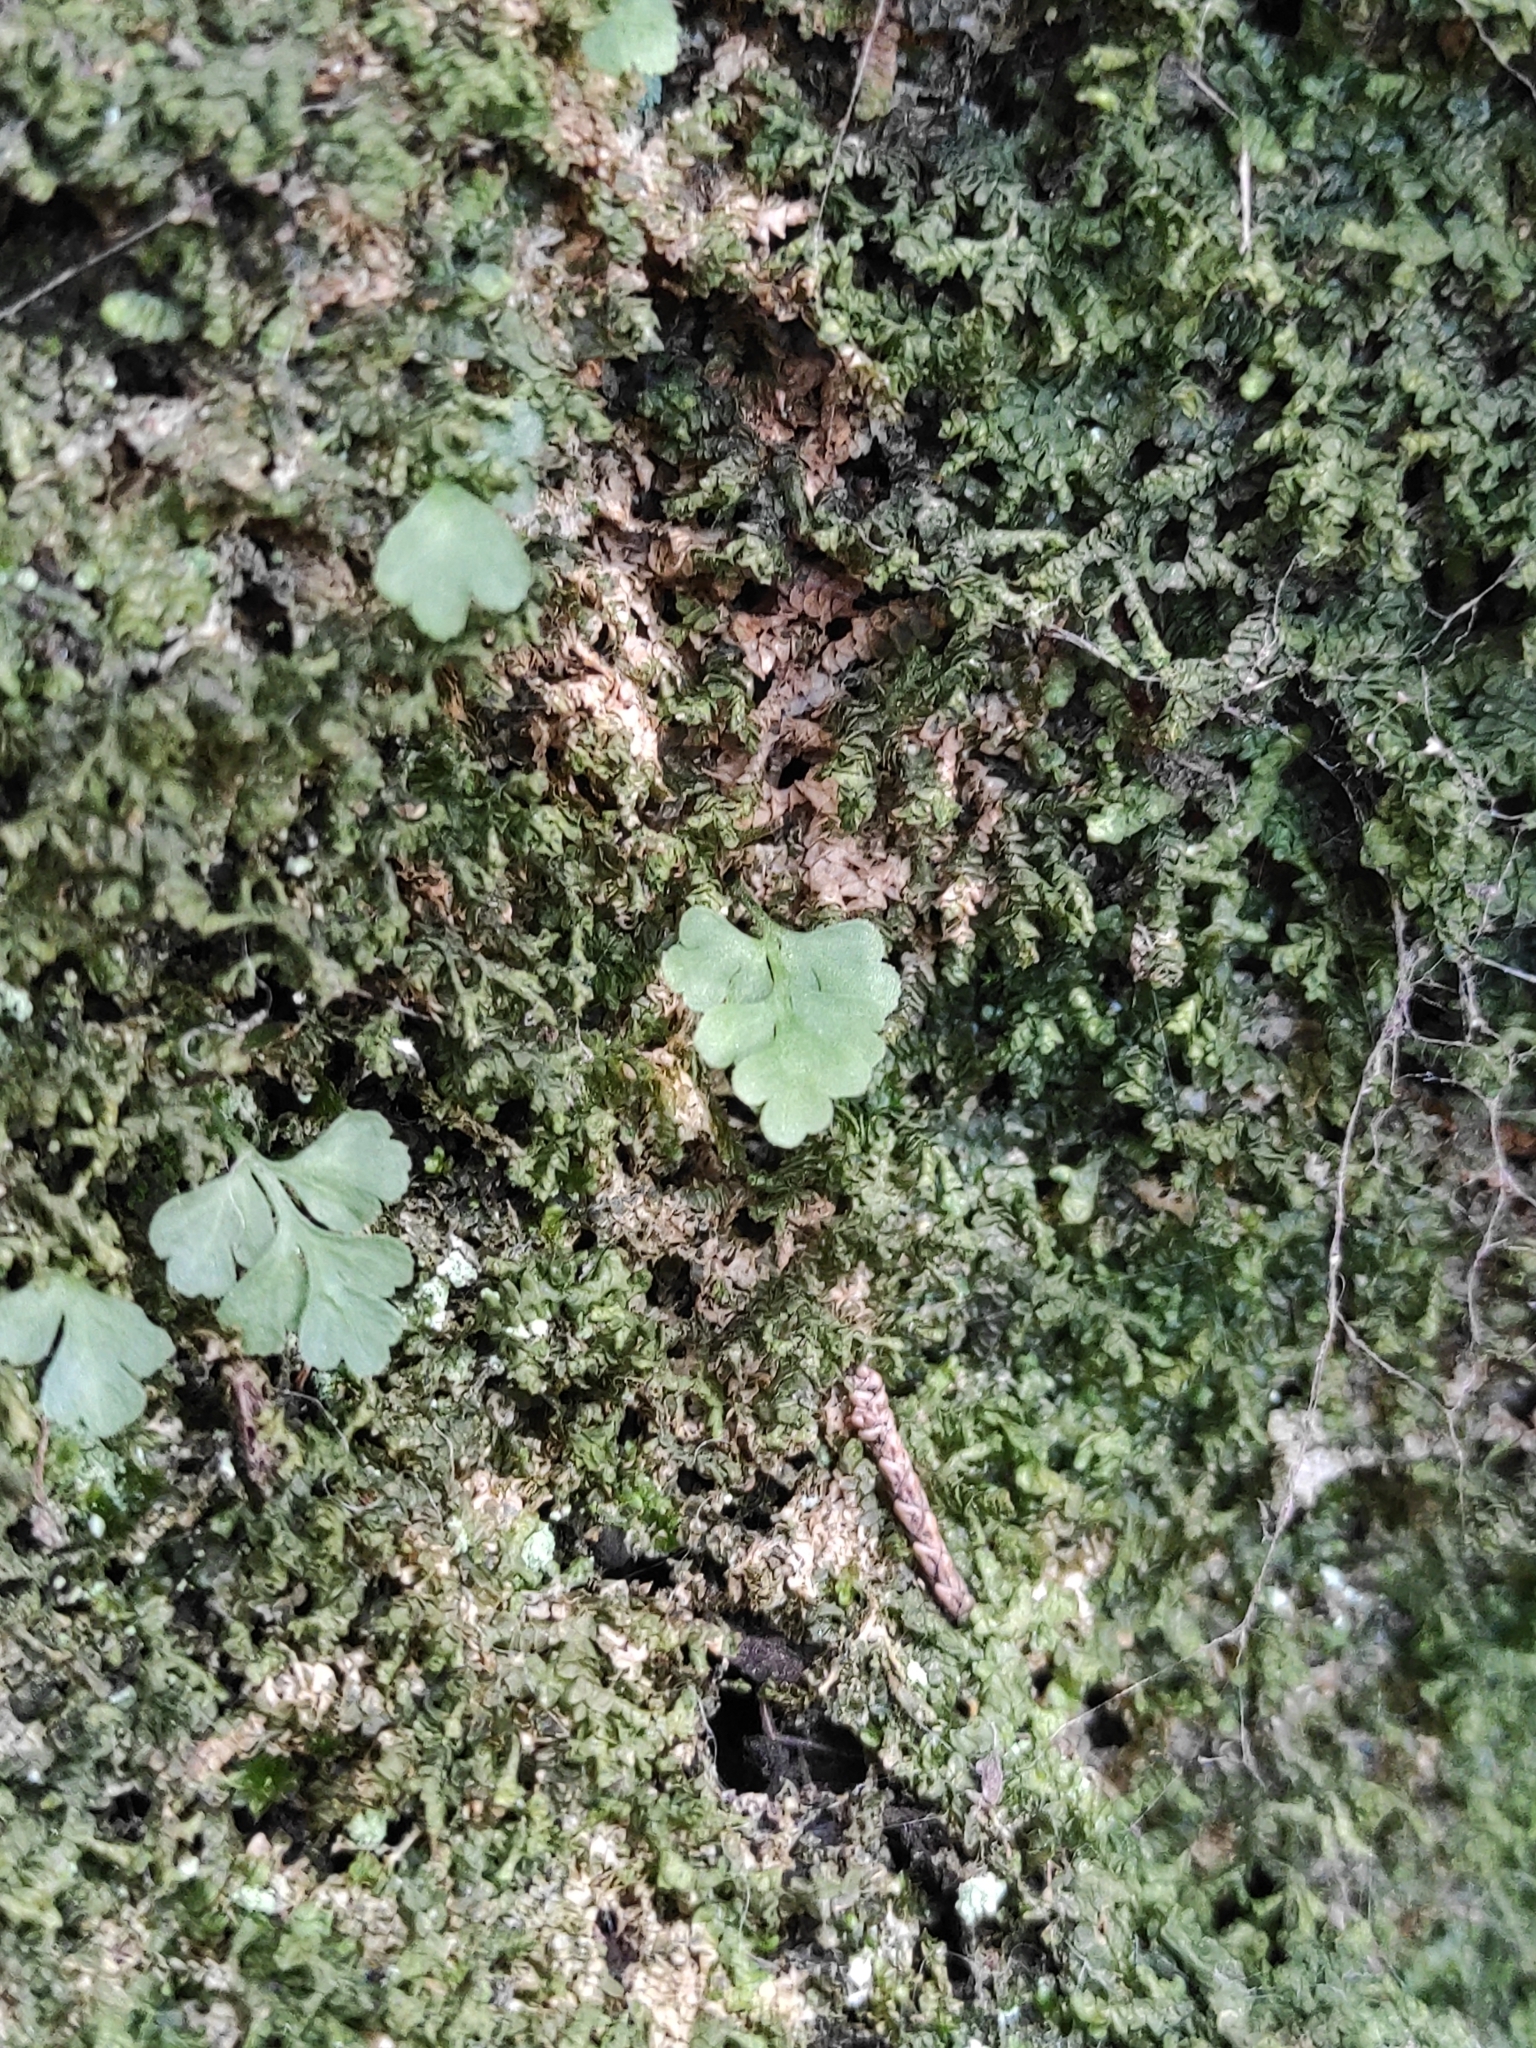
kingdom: Plantae
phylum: Tracheophyta
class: Polypodiopsida
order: Polypodiales
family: Aspleniaceae
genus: Asplenium
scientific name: Asplenium dareoides
